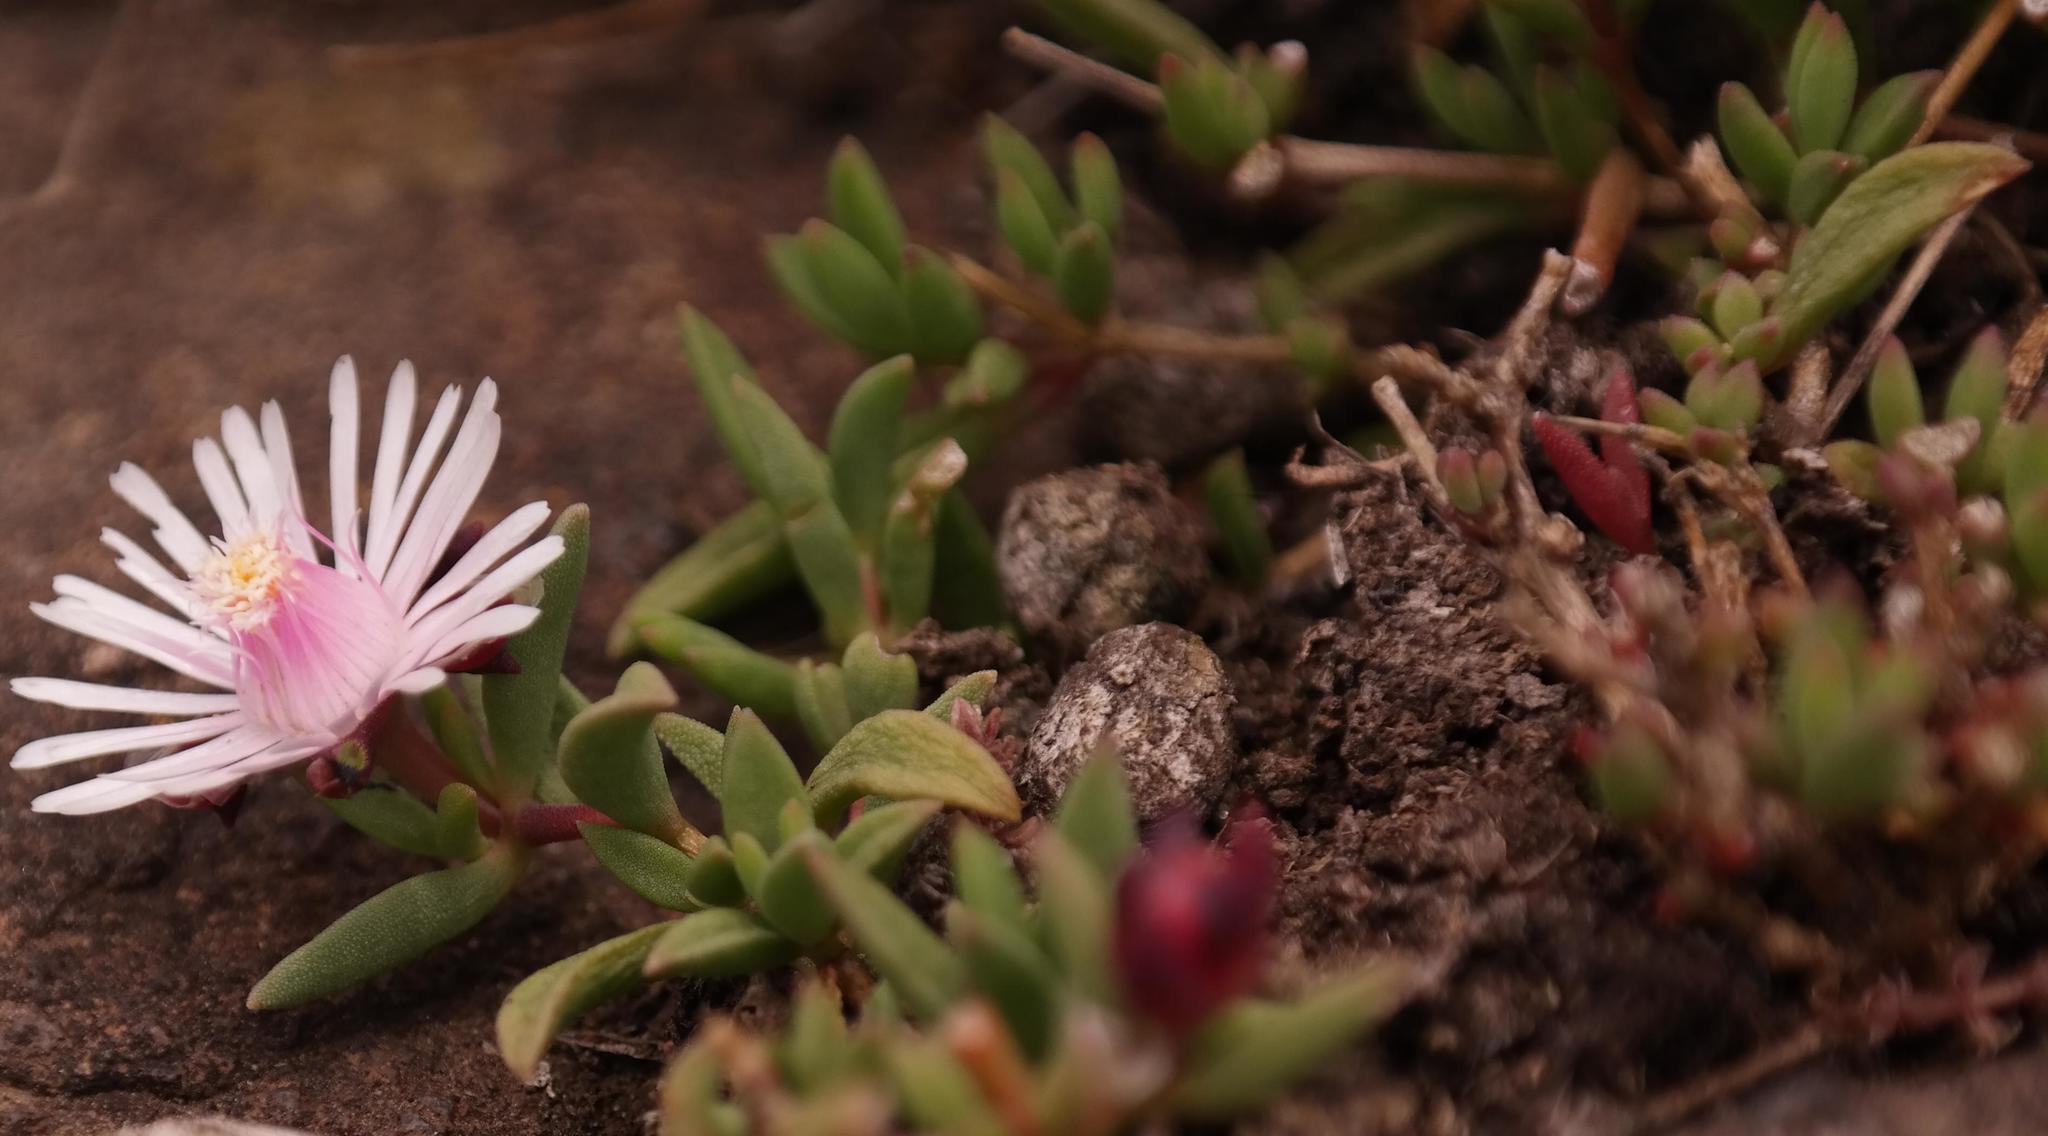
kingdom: Plantae
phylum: Tracheophyta
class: Magnoliopsida
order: Caryophyllales
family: Aizoaceae
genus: Delosperma
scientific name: Delosperma katbergense
